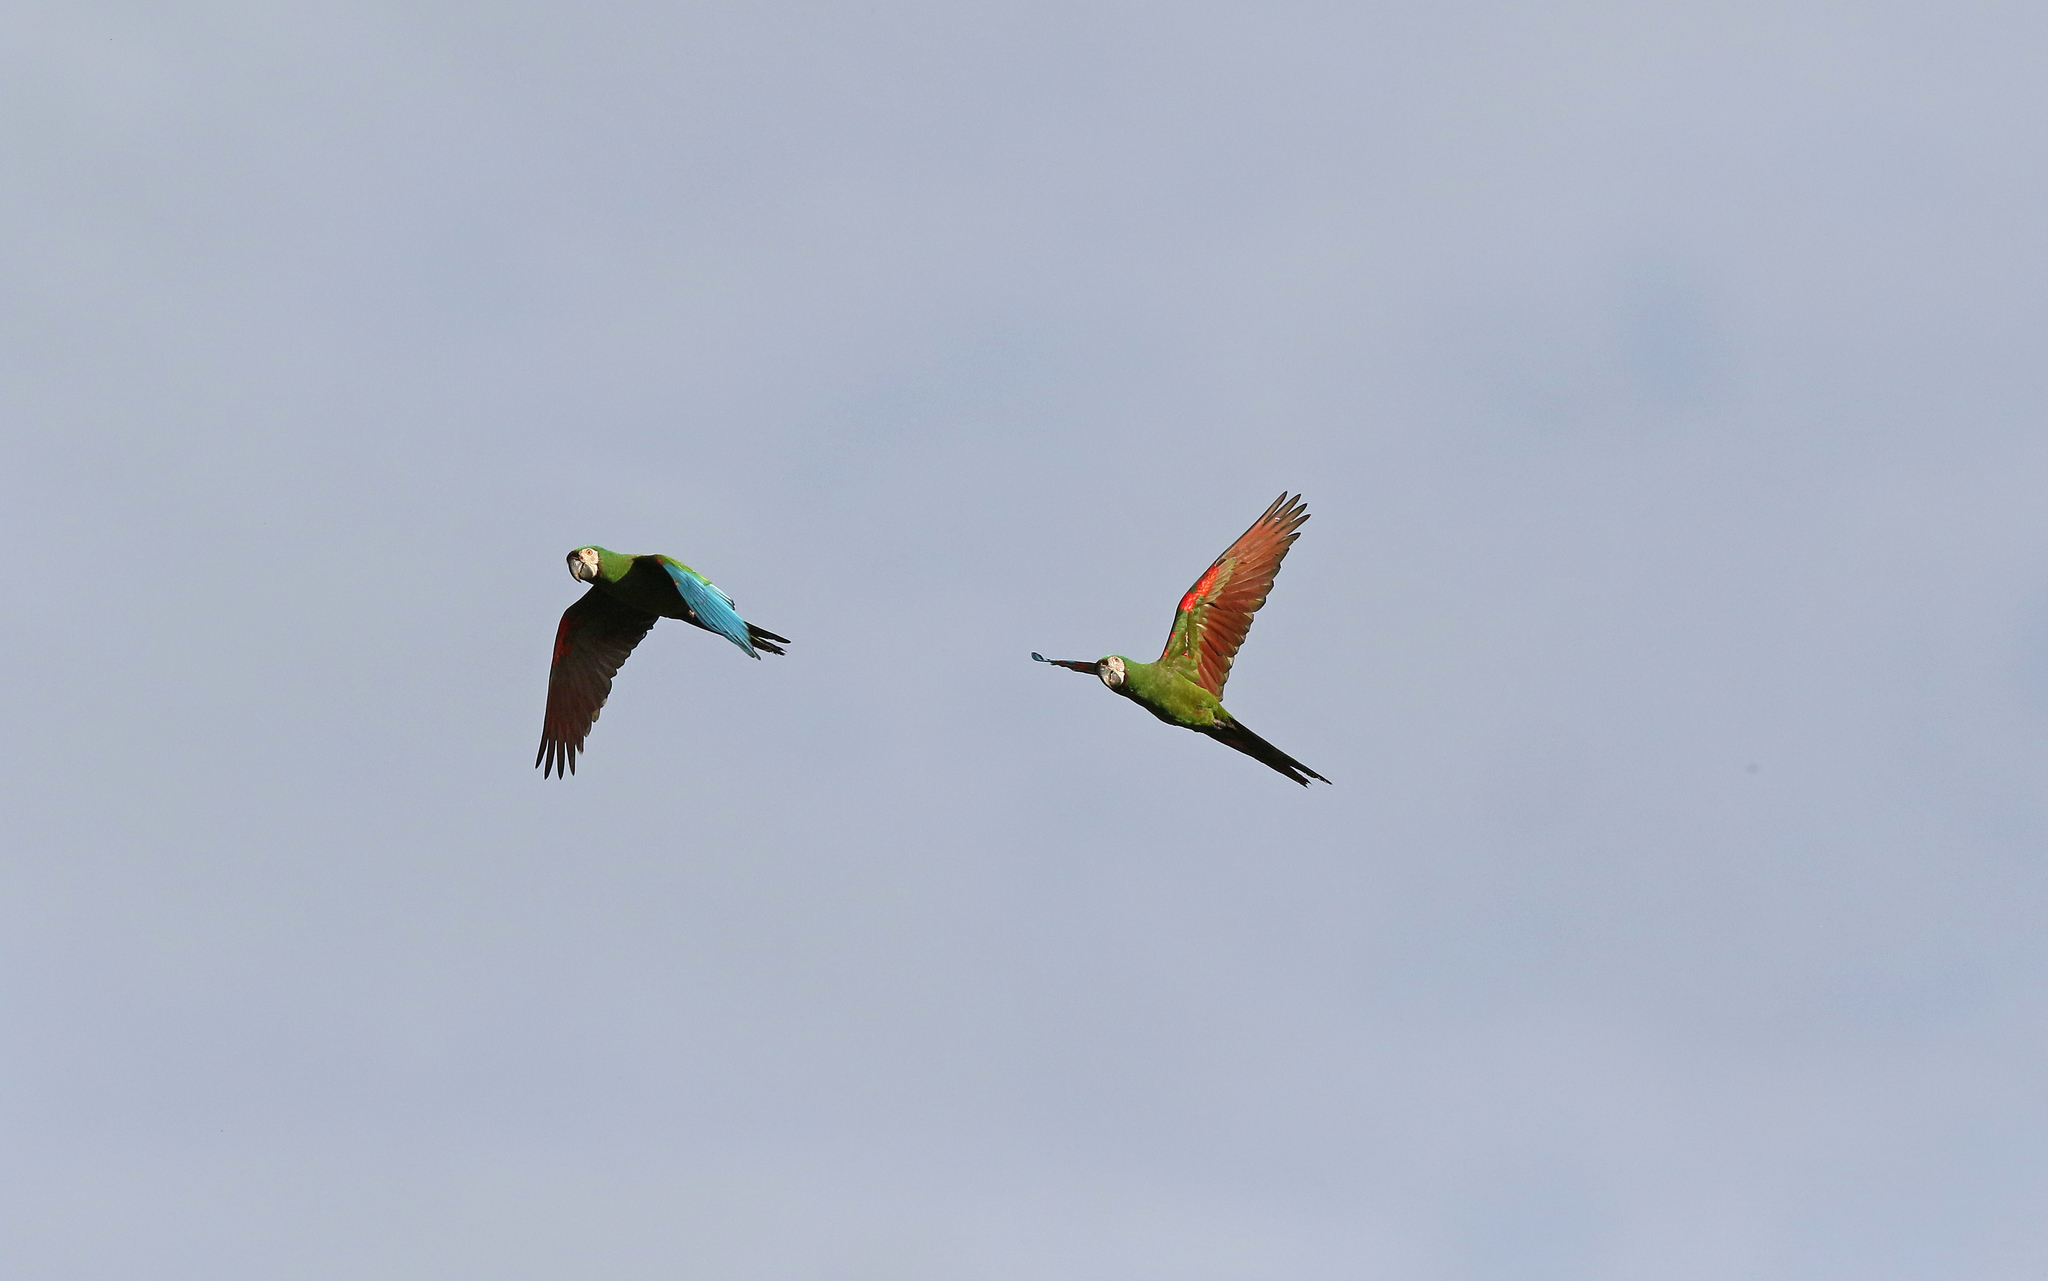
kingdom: Animalia
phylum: Chordata
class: Aves
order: Psittaciformes
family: Psittacidae
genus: Ara
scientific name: Ara severus
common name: Chestnut-fronted macaw
